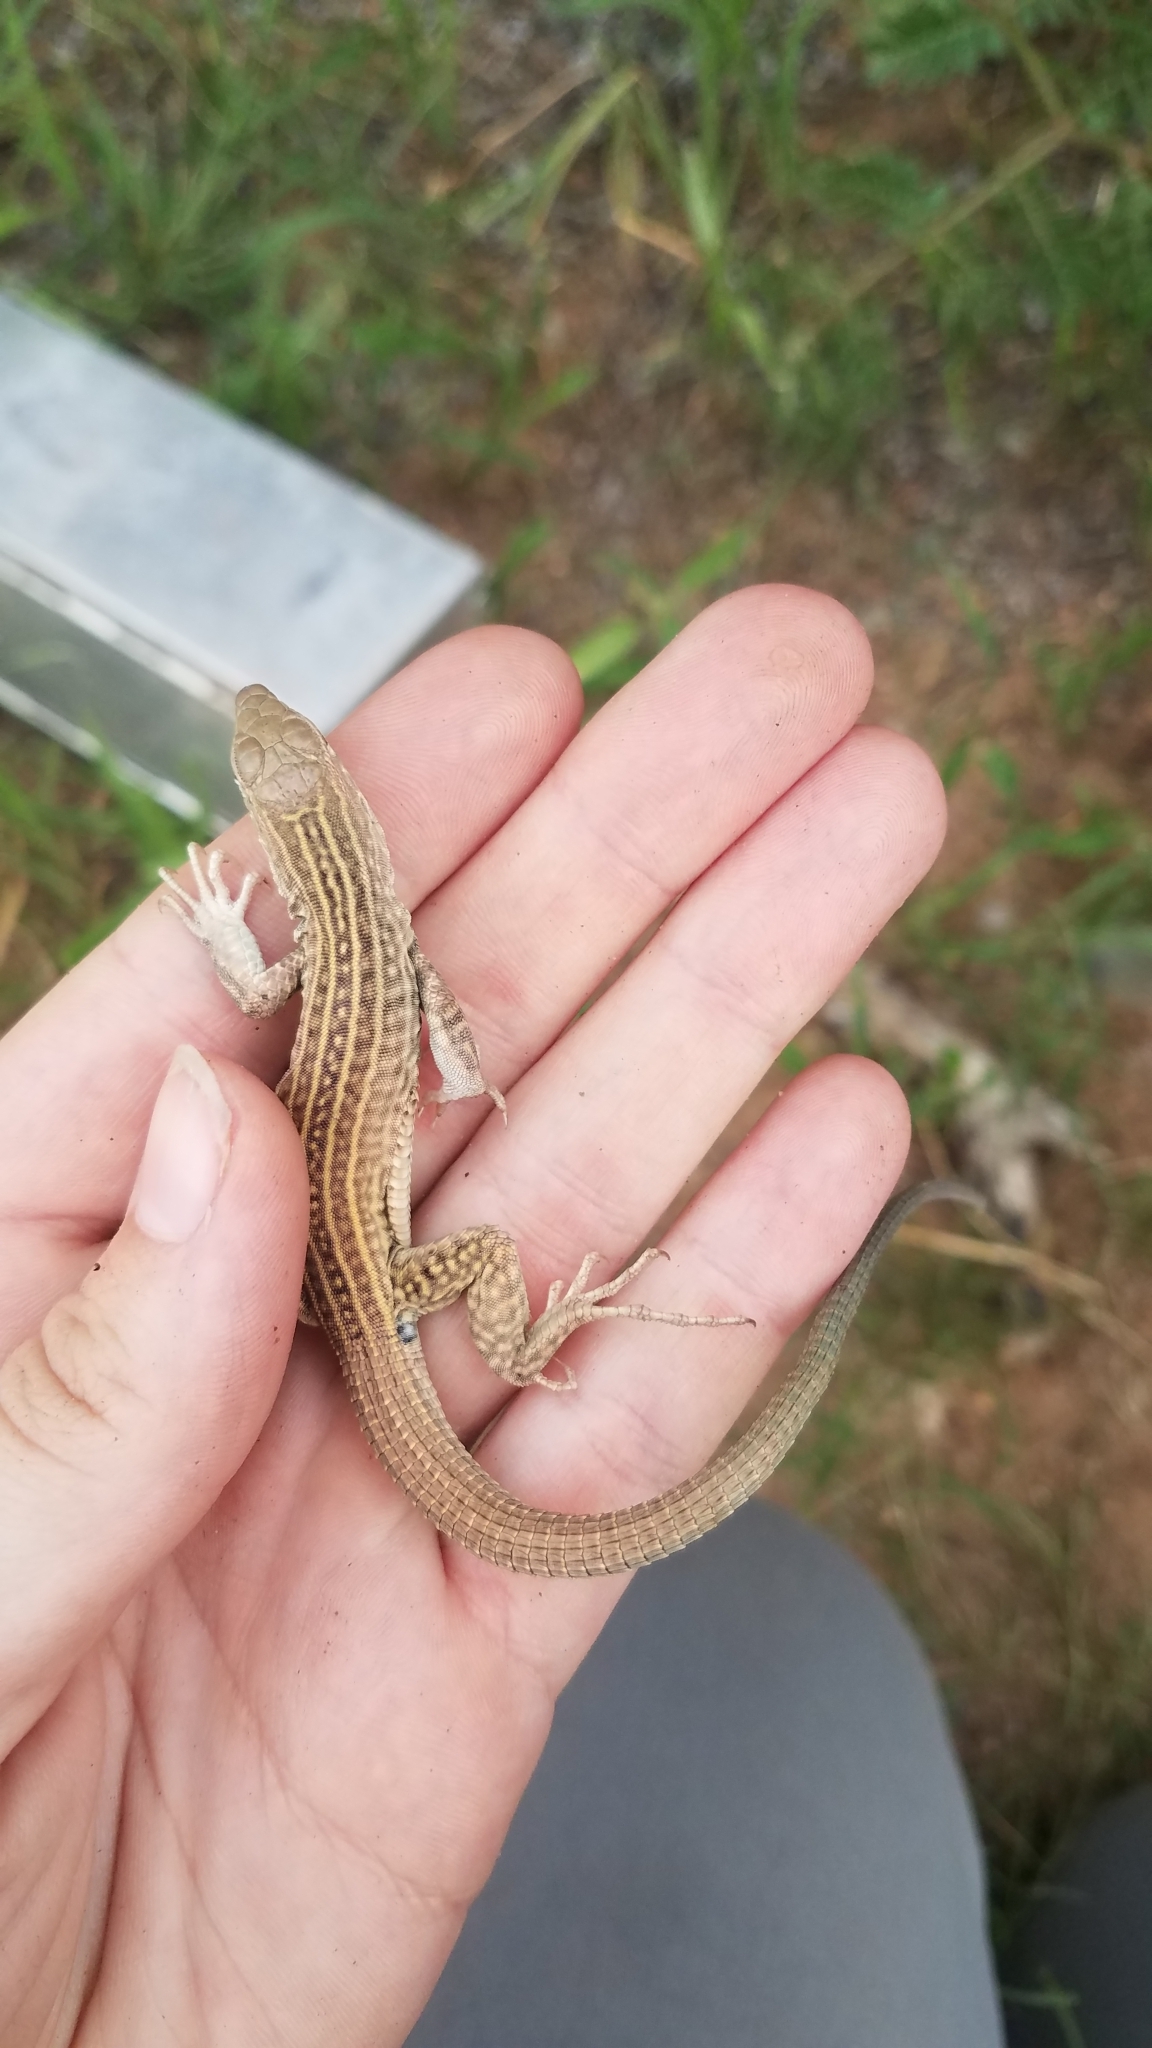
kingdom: Animalia
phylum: Chordata
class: Squamata
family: Teiidae
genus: Aspidoscelis
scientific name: Aspidoscelis tigris
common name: Tiger whiptail
